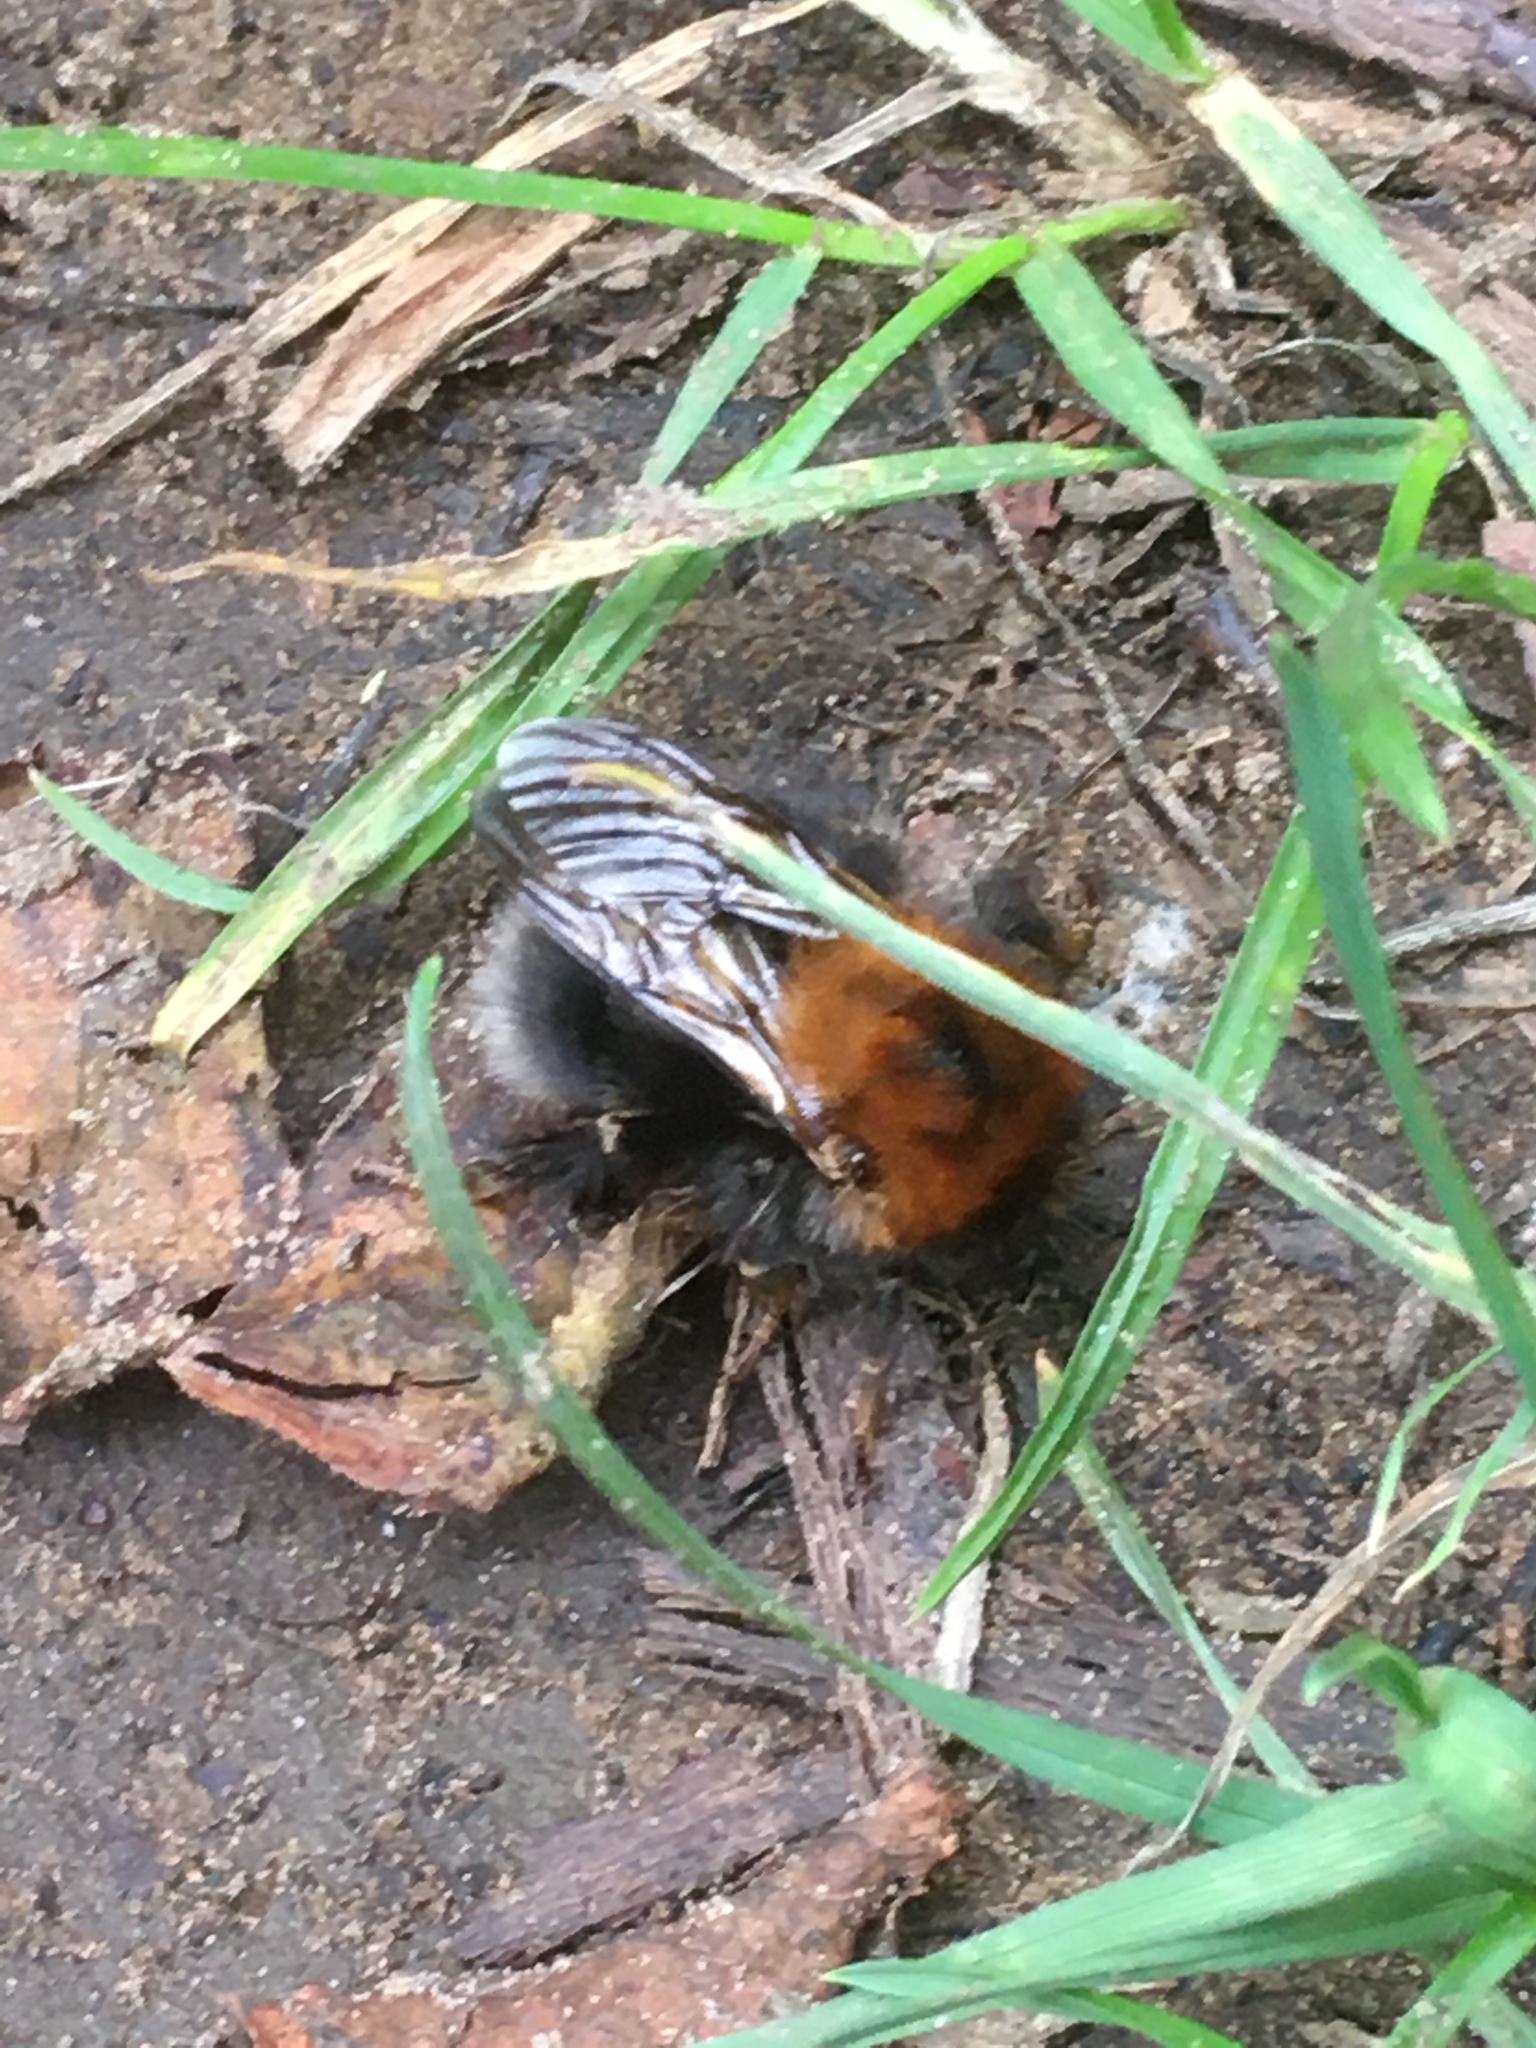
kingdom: Animalia
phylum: Arthropoda
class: Insecta
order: Hymenoptera
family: Apidae
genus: Bombus
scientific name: Bombus hypnorum
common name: New garden bumblebee
